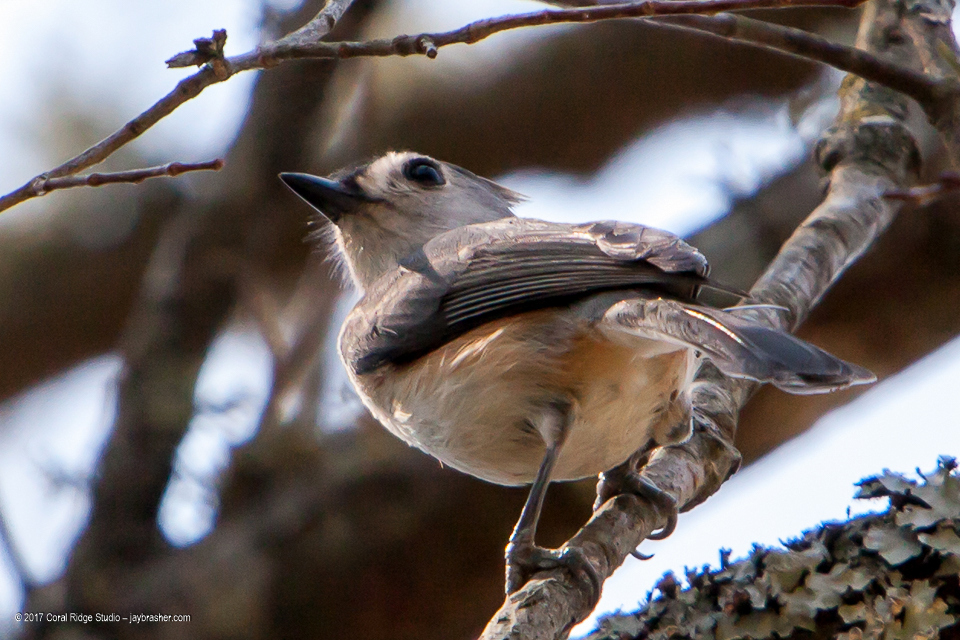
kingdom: Animalia
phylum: Chordata
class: Aves
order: Passeriformes
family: Paridae
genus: Baeolophus
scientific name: Baeolophus bicolor
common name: Tufted titmouse
